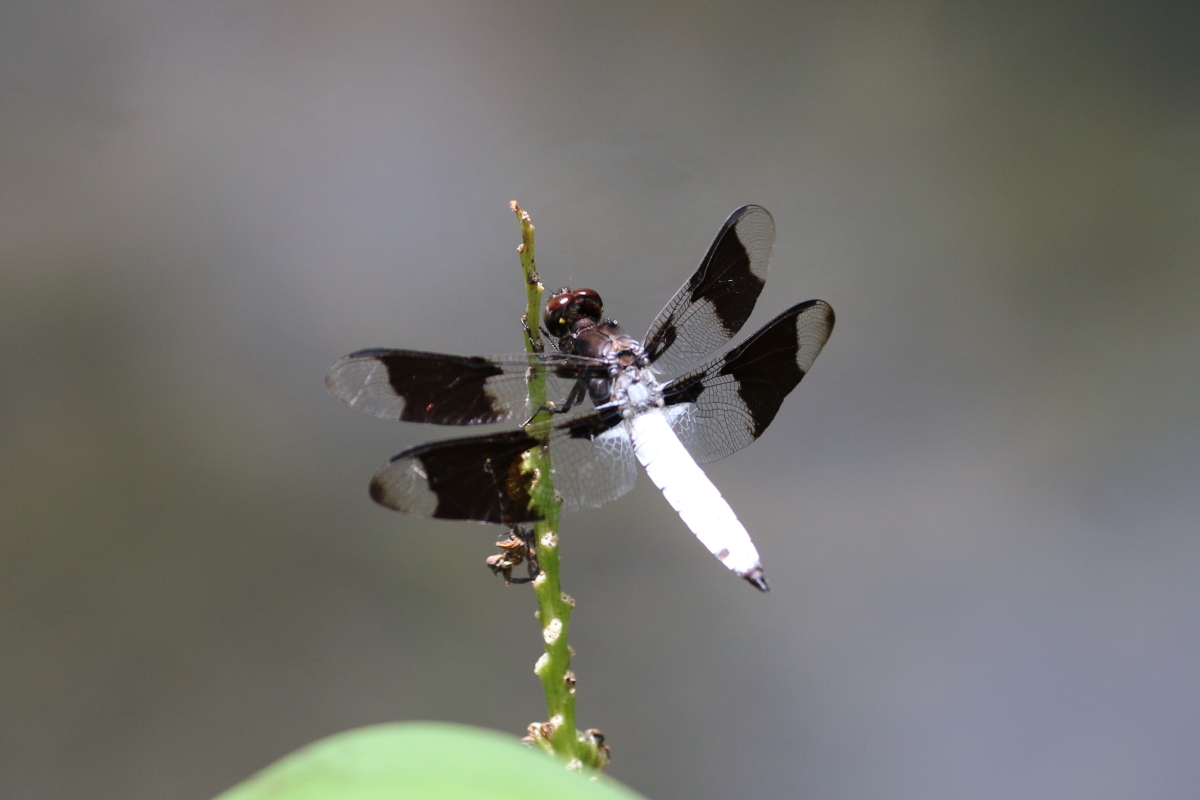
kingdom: Animalia
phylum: Arthropoda
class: Insecta
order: Odonata
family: Libellulidae
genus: Plathemis
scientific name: Plathemis lydia
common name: Common whitetail
